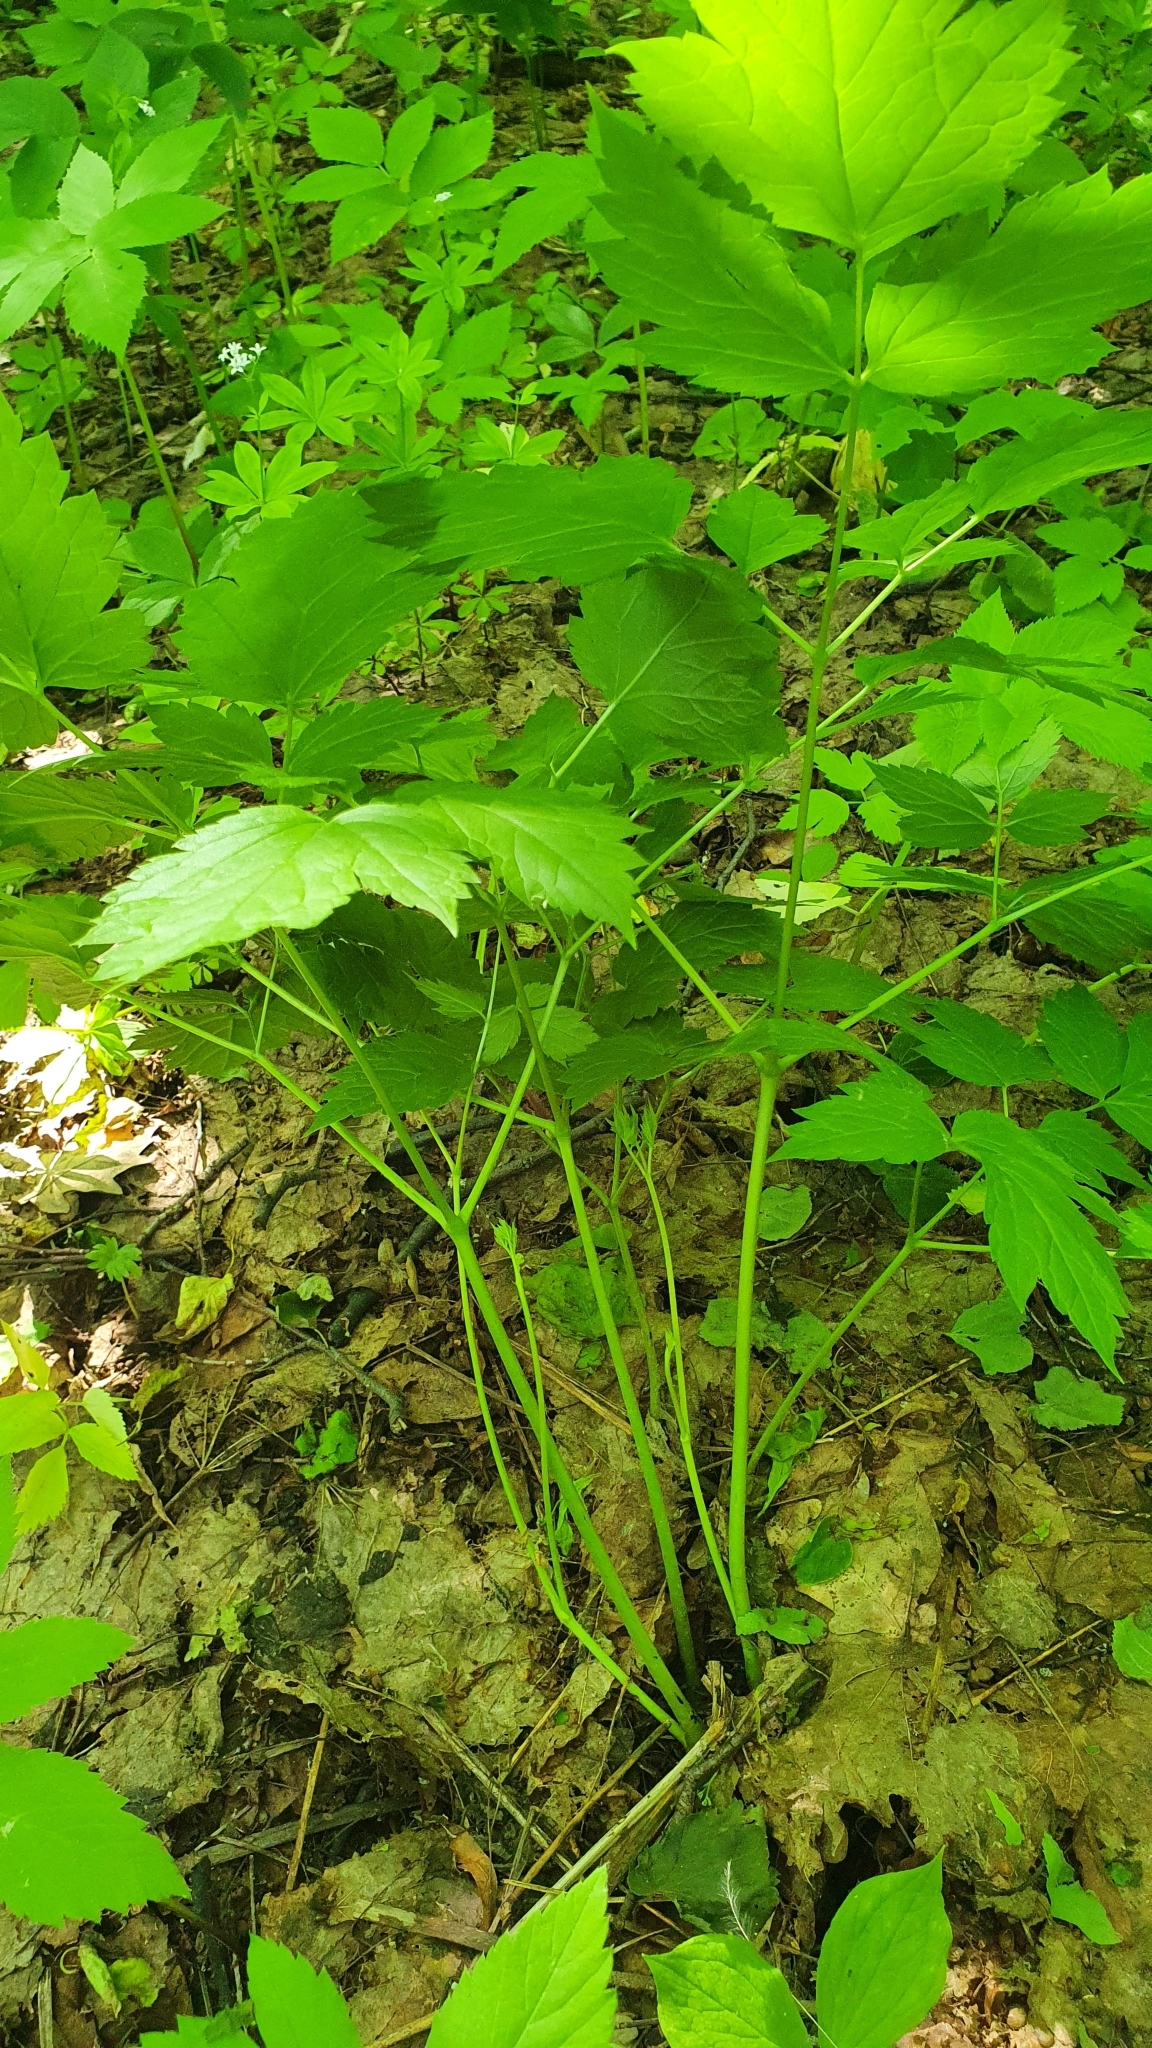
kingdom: Plantae
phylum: Tracheophyta
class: Magnoliopsida
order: Ranunculales
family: Ranunculaceae
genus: Actaea
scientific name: Actaea spicata
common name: Baneberry
